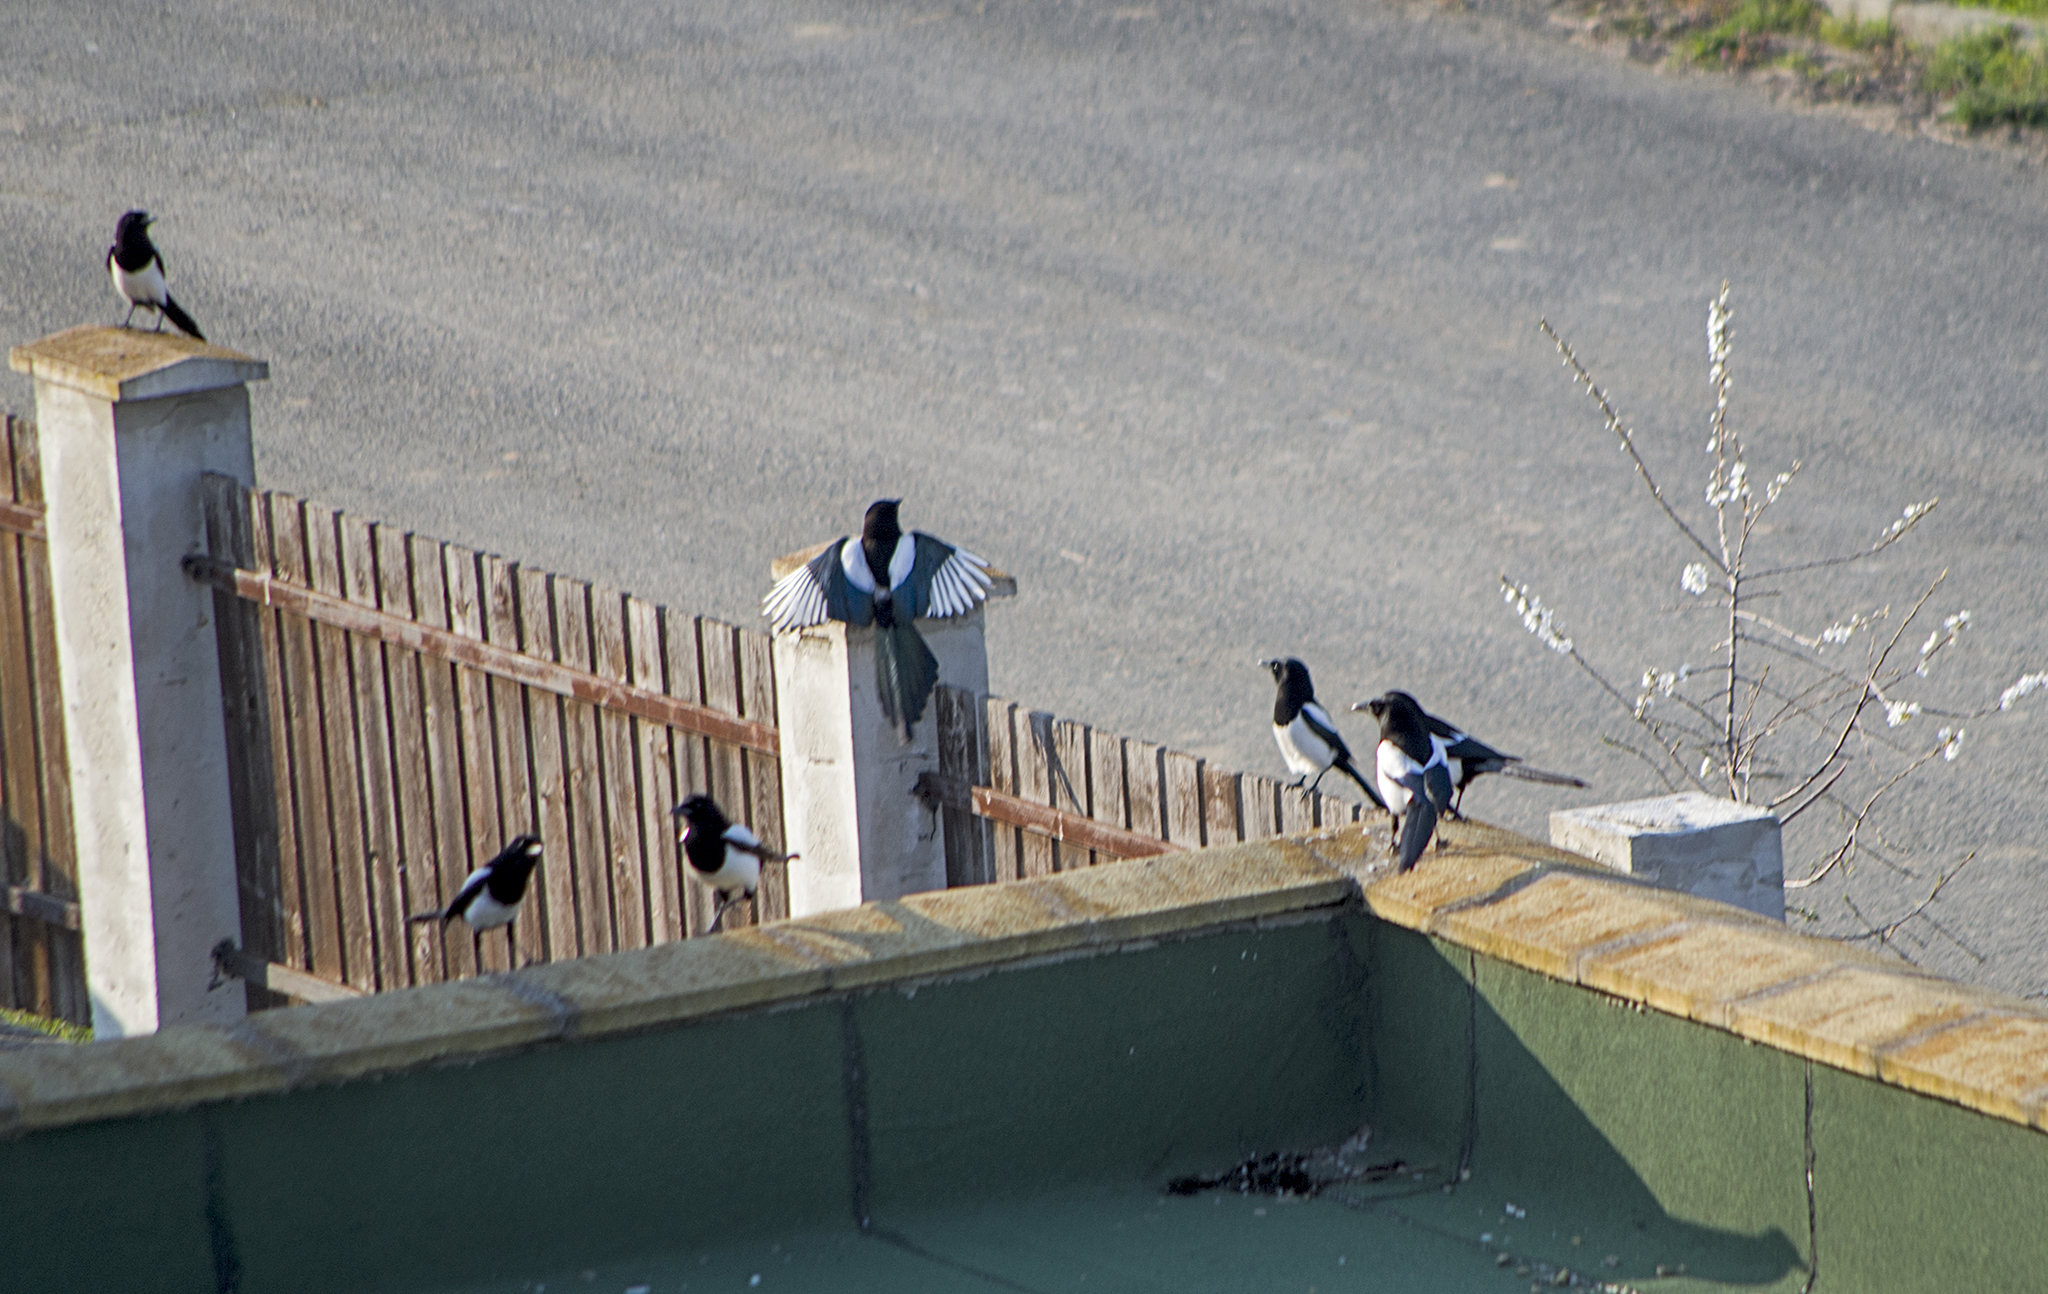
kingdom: Animalia
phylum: Chordata
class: Aves
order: Passeriformes
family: Corvidae
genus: Pica
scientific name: Pica pica
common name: Eurasian magpie
